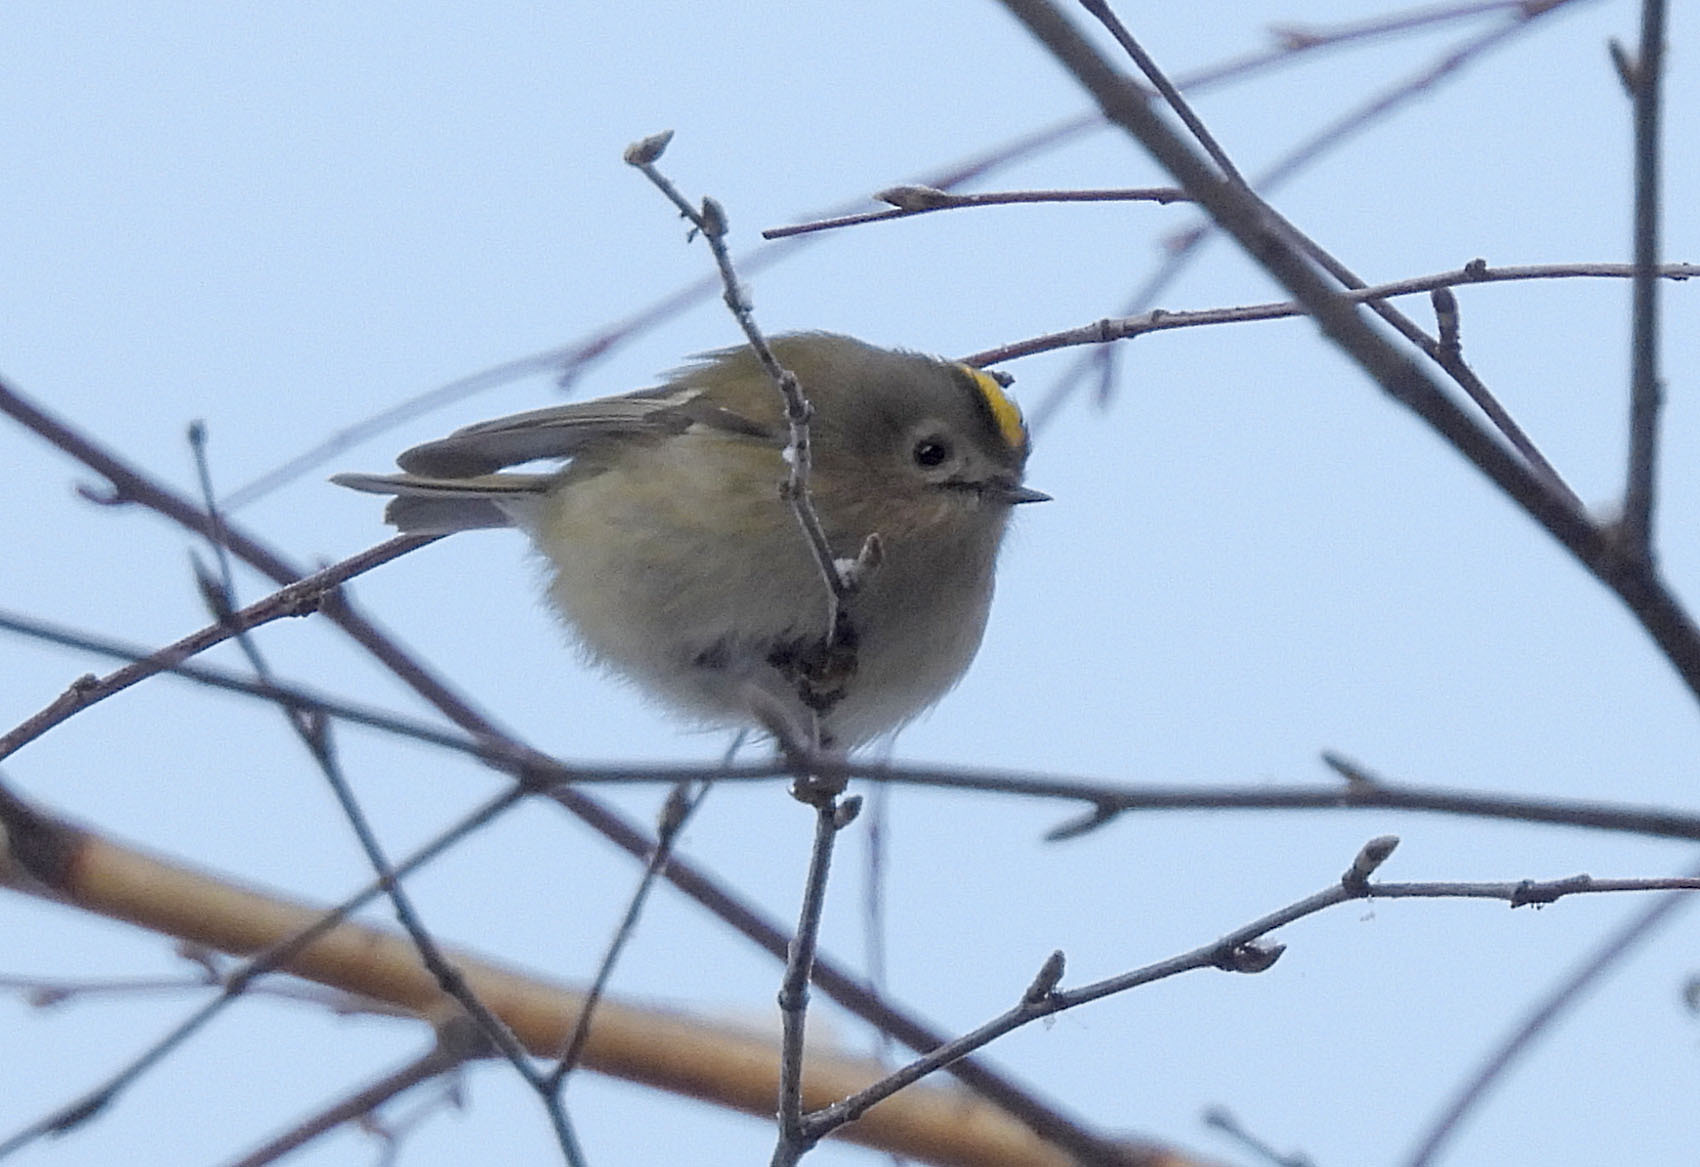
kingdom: Animalia
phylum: Chordata
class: Aves
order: Passeriformes
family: Regulidae
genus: Regulus
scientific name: Regulus regulus
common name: Goldcrest
